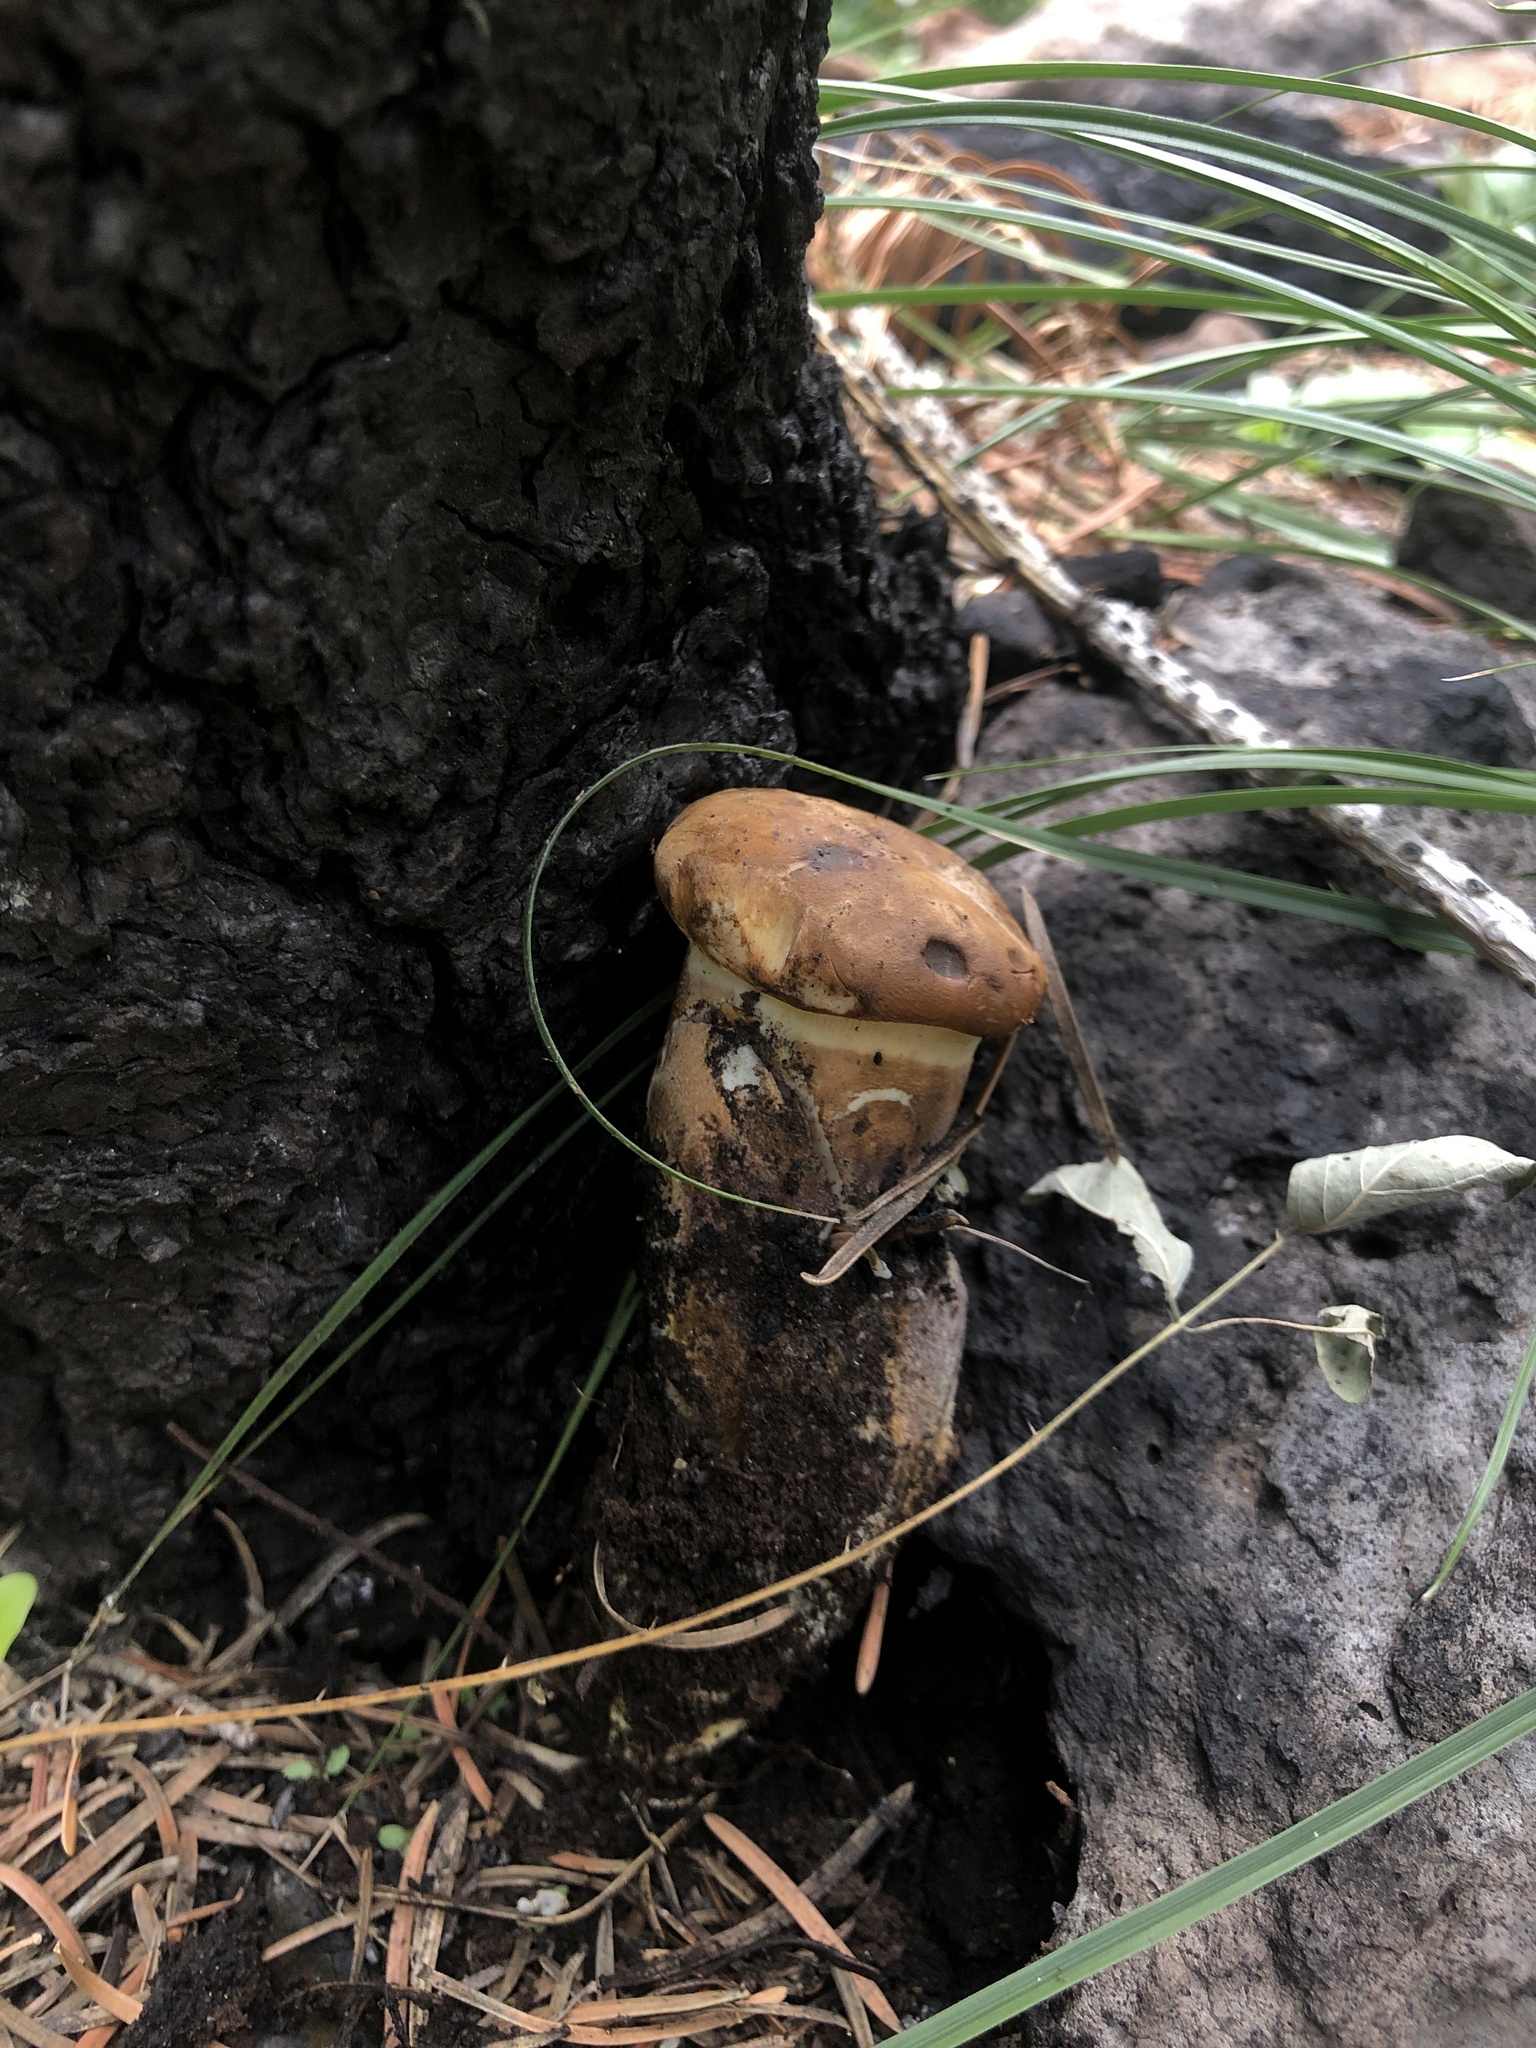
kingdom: Fungi
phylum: Basidiomycota
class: Agaricomycetes
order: Boletales
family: Tapinellaceae
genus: Tapinella
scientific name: Tapinella atrotomentosa
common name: Velvet rollrim
